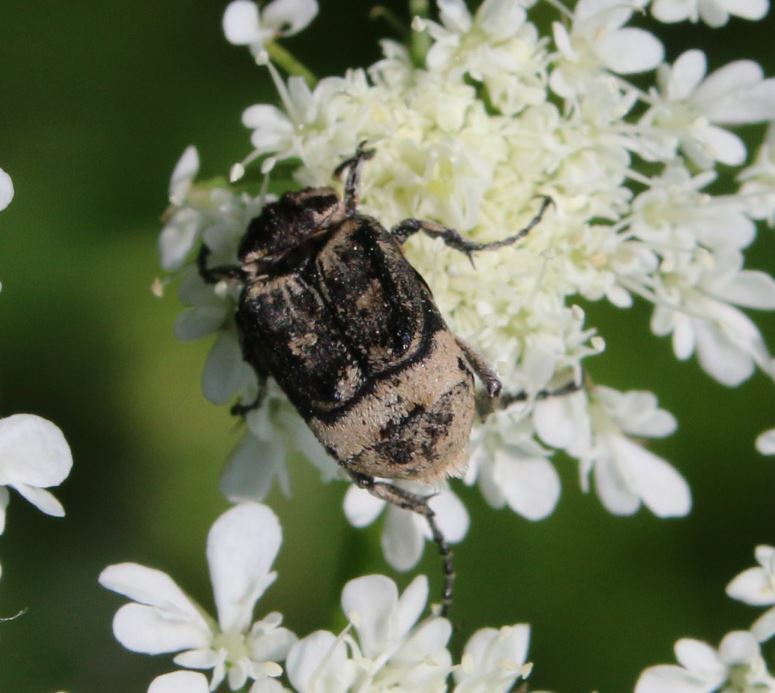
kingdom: Animalia
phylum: Arthropoda
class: Insecta
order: Coleoptera
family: Scarabaeidae
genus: Valgus
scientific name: Valgus hemipterus
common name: Bug flower chafer
